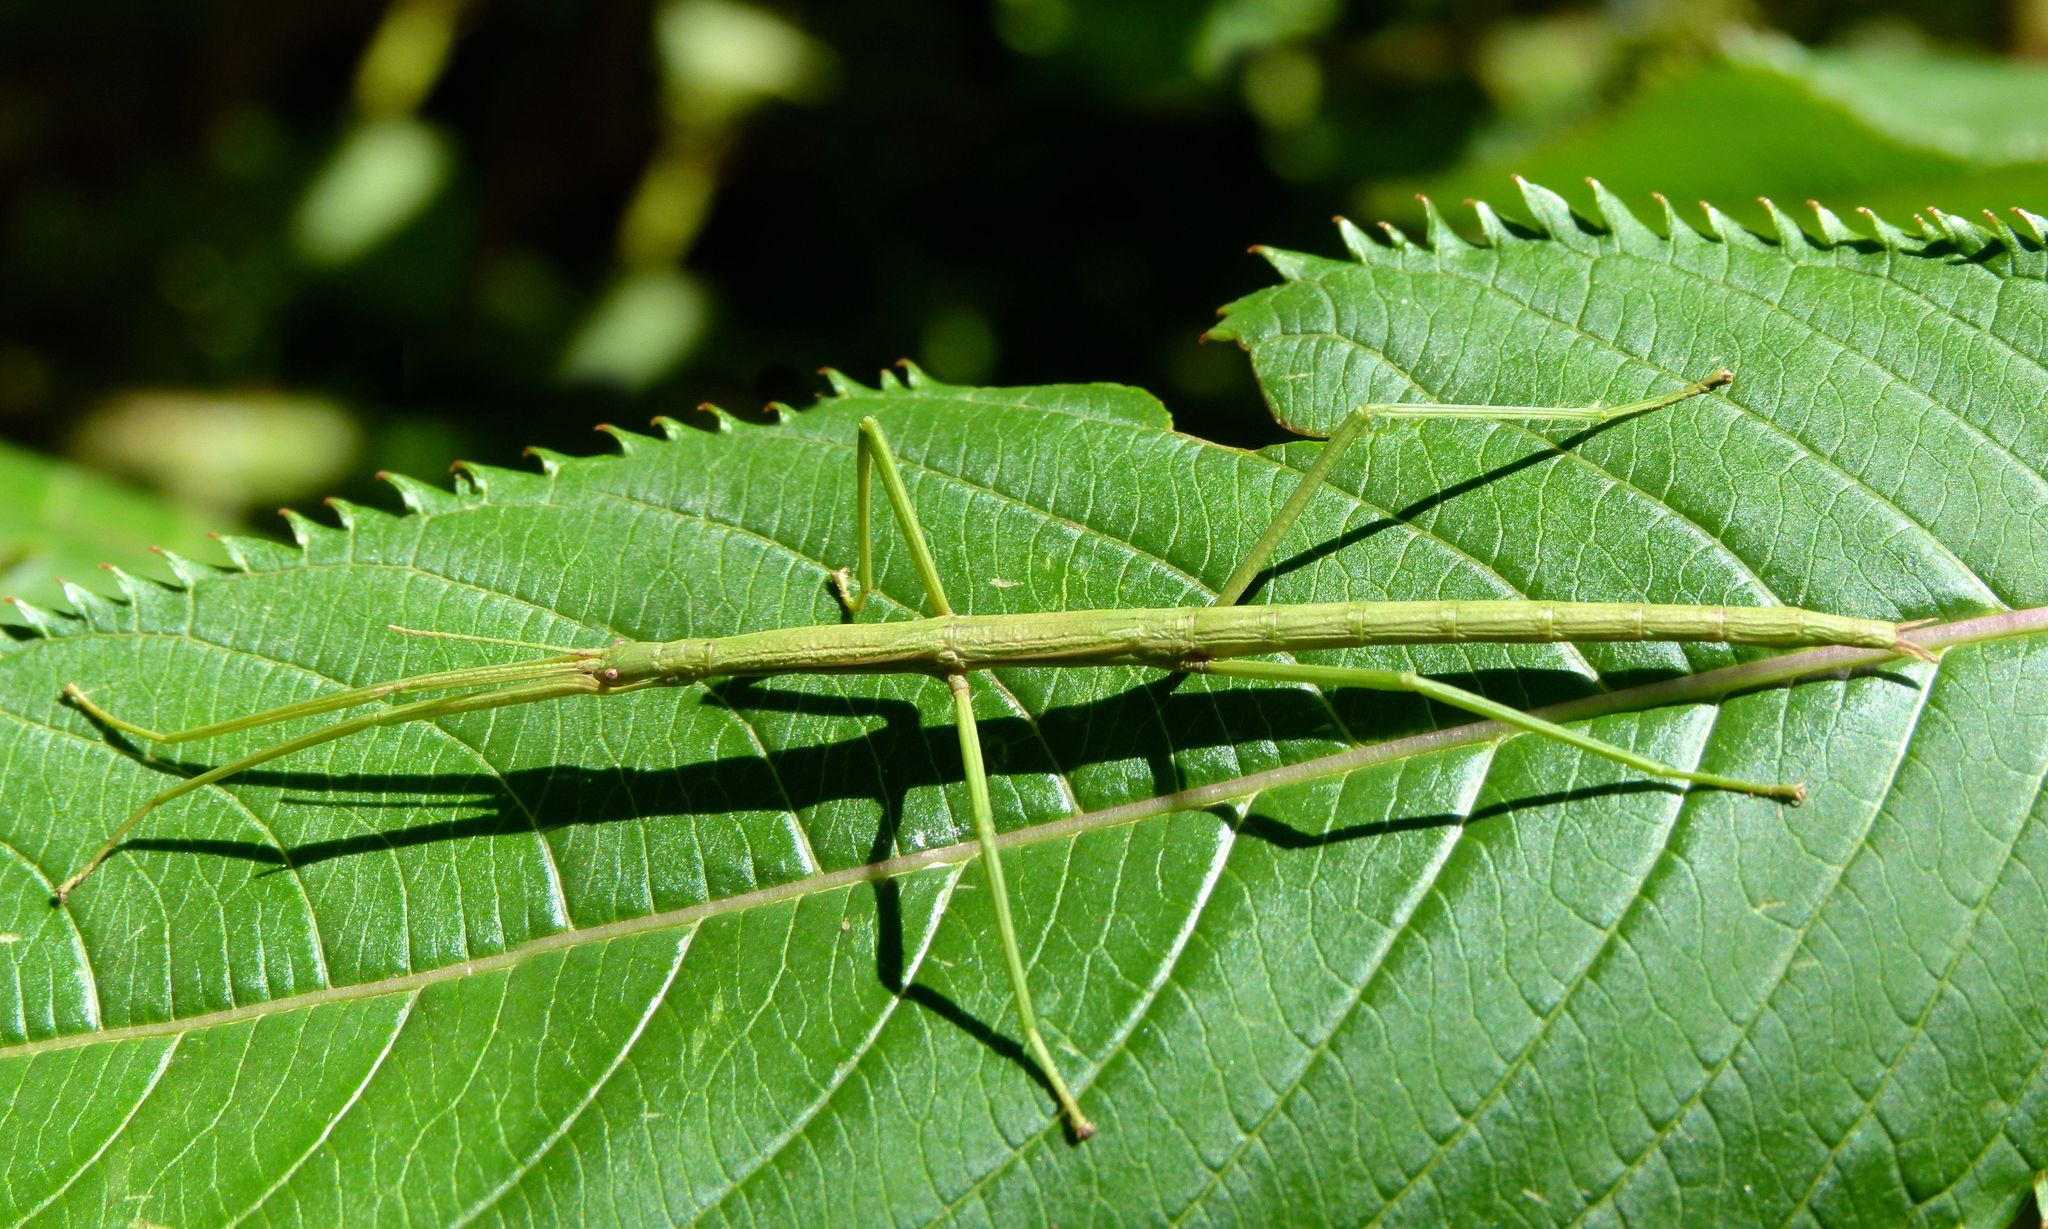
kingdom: Animalia
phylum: Arthropoda
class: Insecta
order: Phasmida
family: Phasmatidae
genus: Clitarchus
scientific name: Clitarchus hookeri
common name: Smooth stick insect
